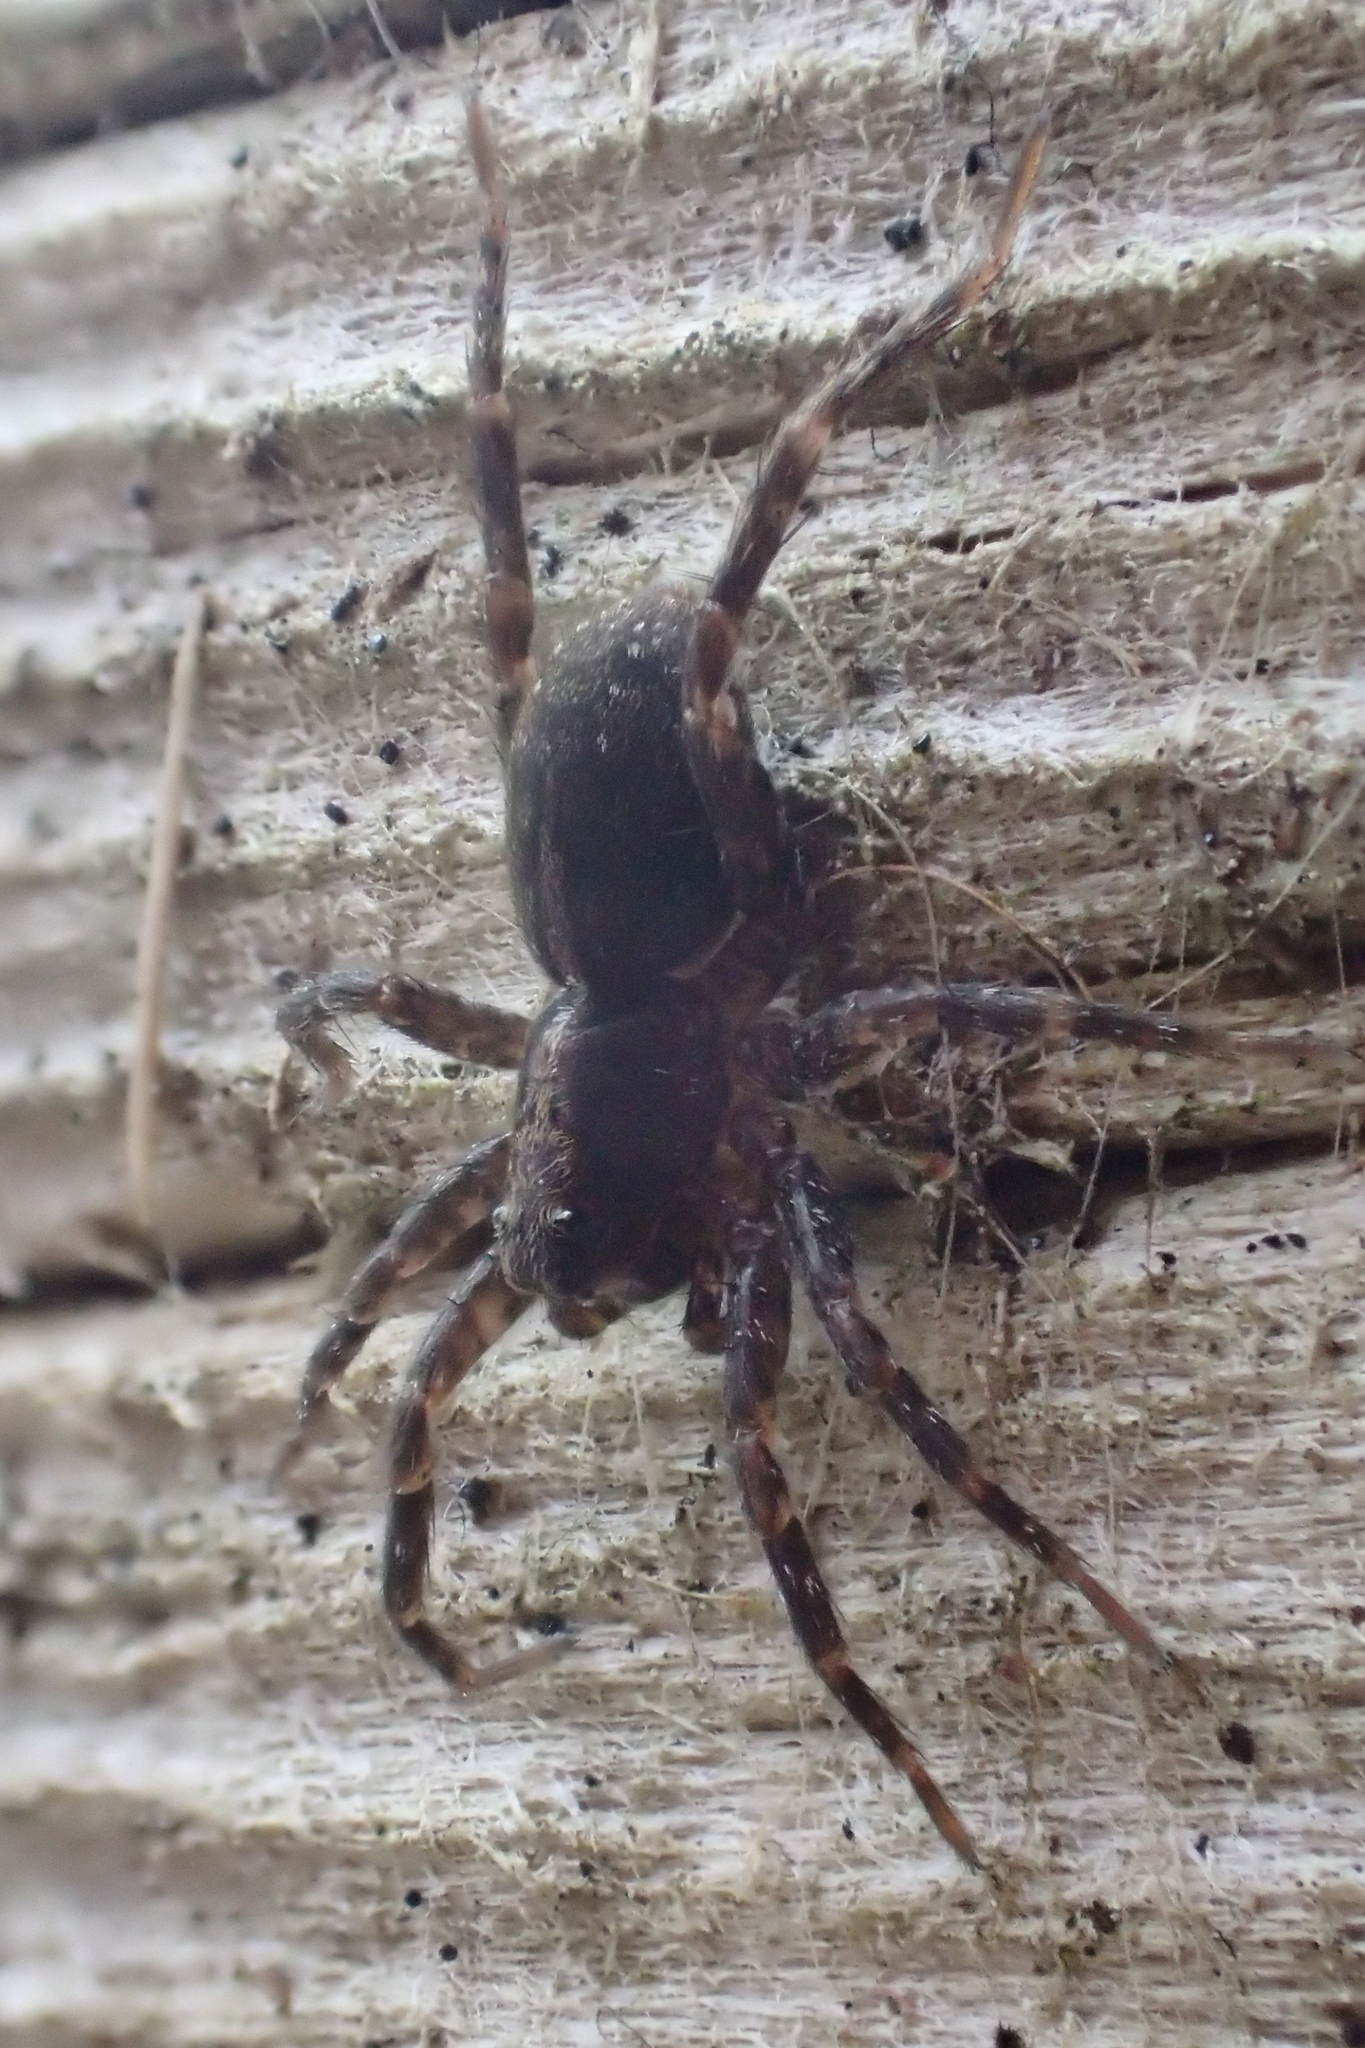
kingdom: Animalia
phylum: Arthropoda
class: Arachnida
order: Araneae
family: Lycosidae
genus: Allotrochosina
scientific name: Allotrochosina schauinslandi
